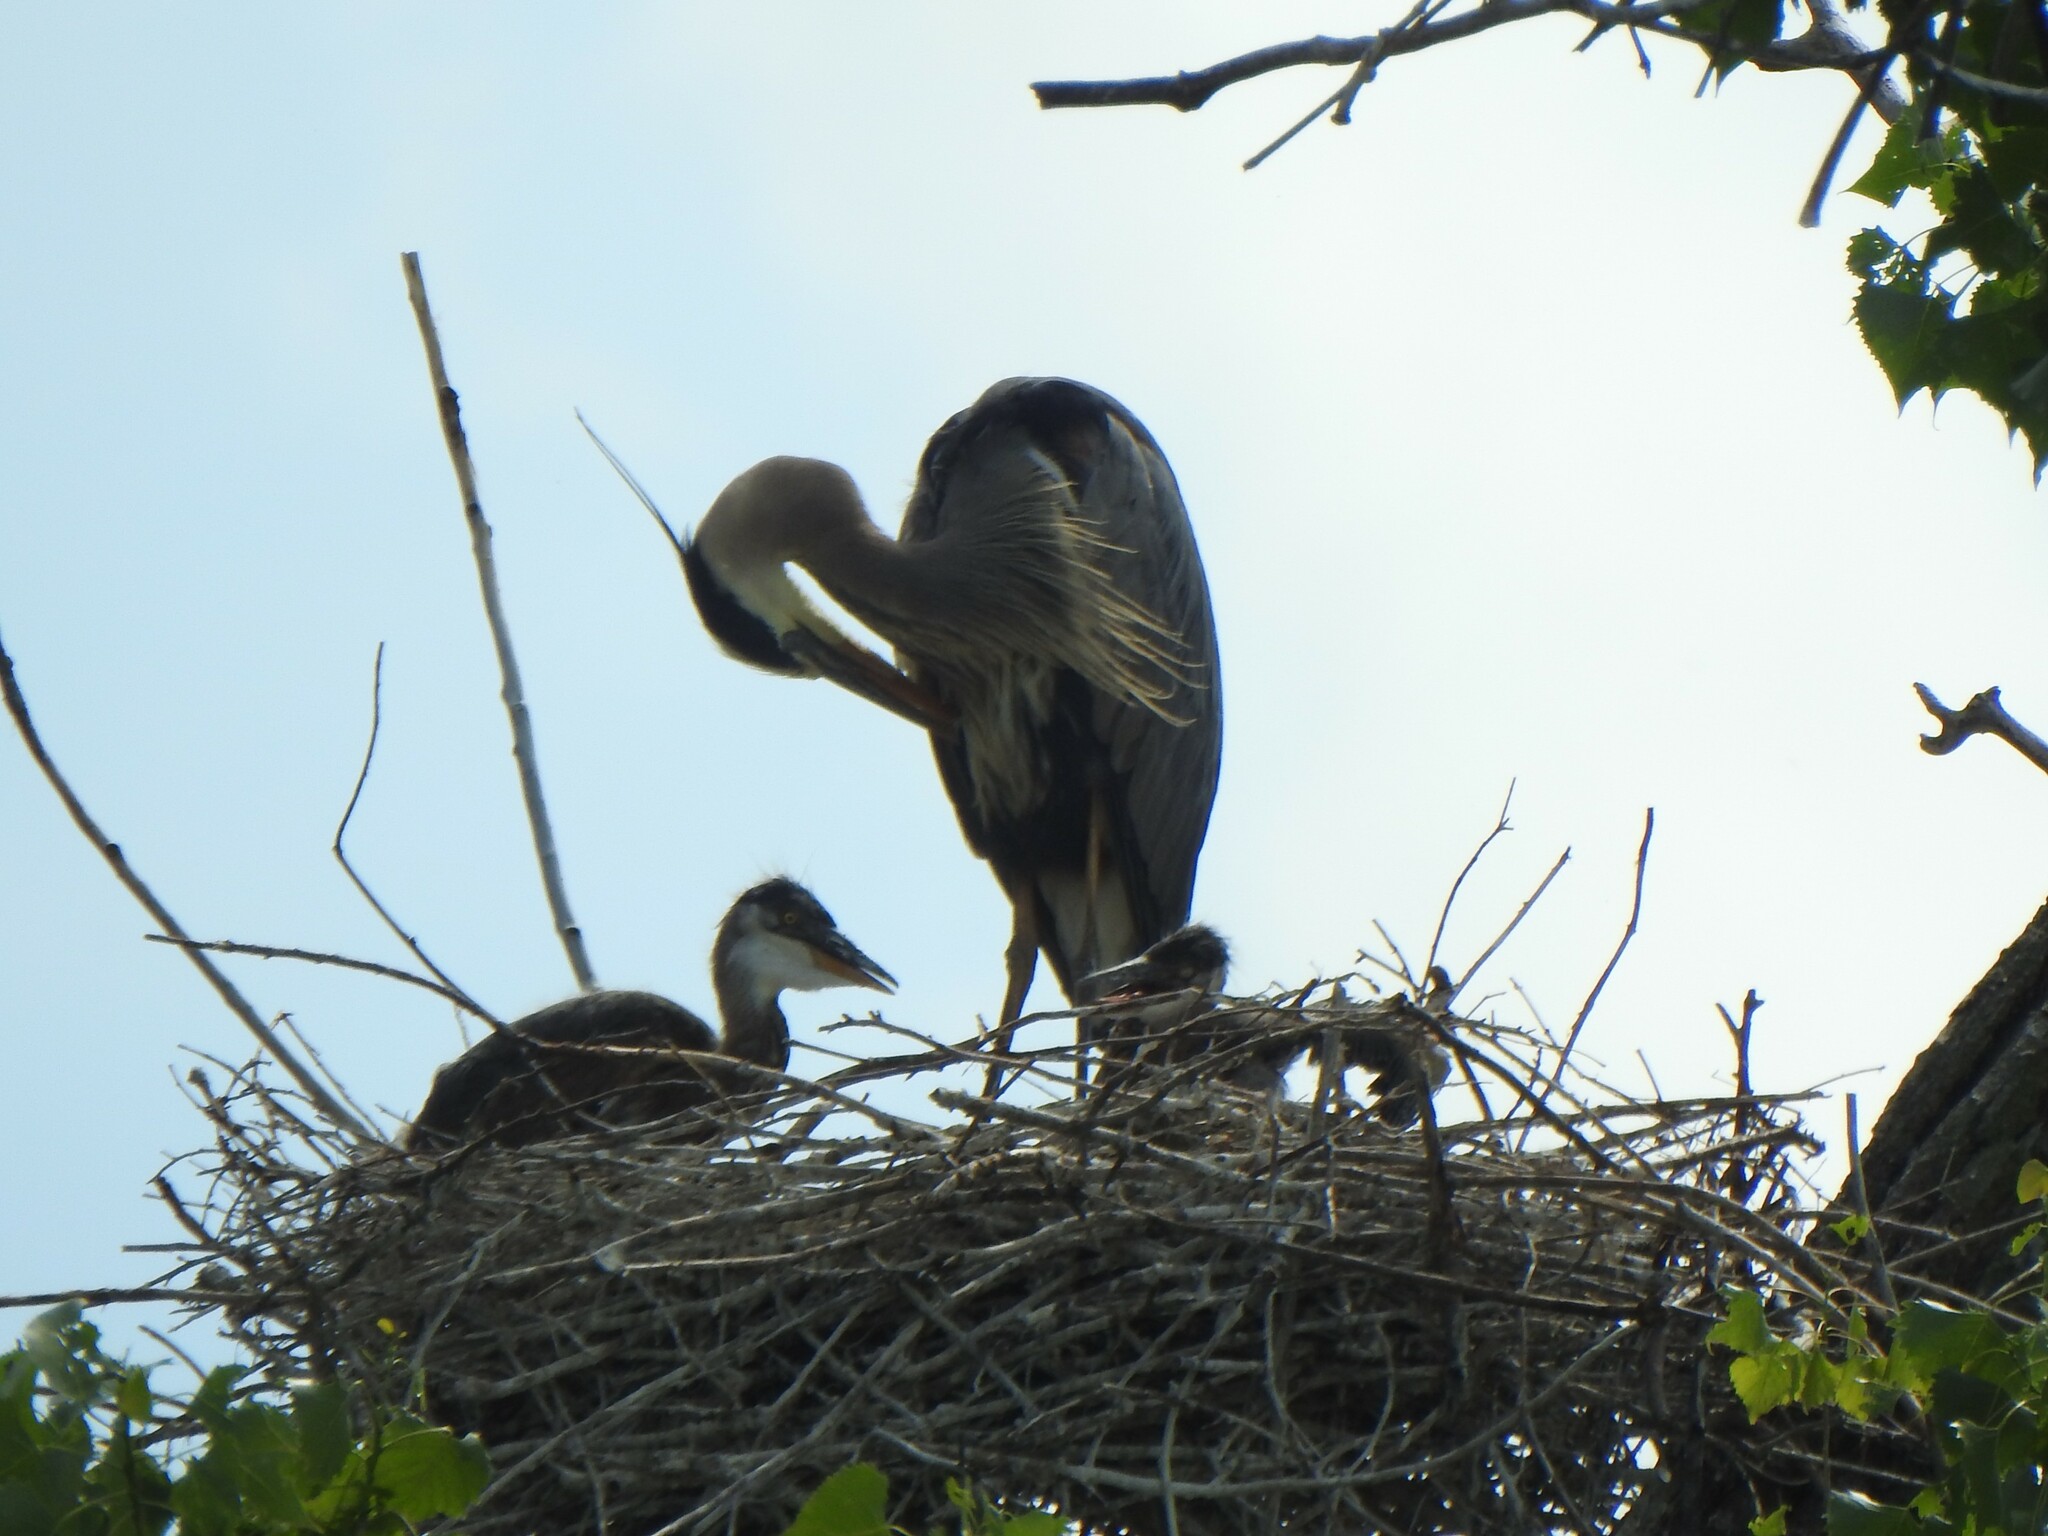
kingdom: Animalia
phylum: Chordata
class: Aves
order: Pelecaniformes
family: Ardeidae
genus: Ardea
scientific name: Ardea herodias
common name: Great blue heron
